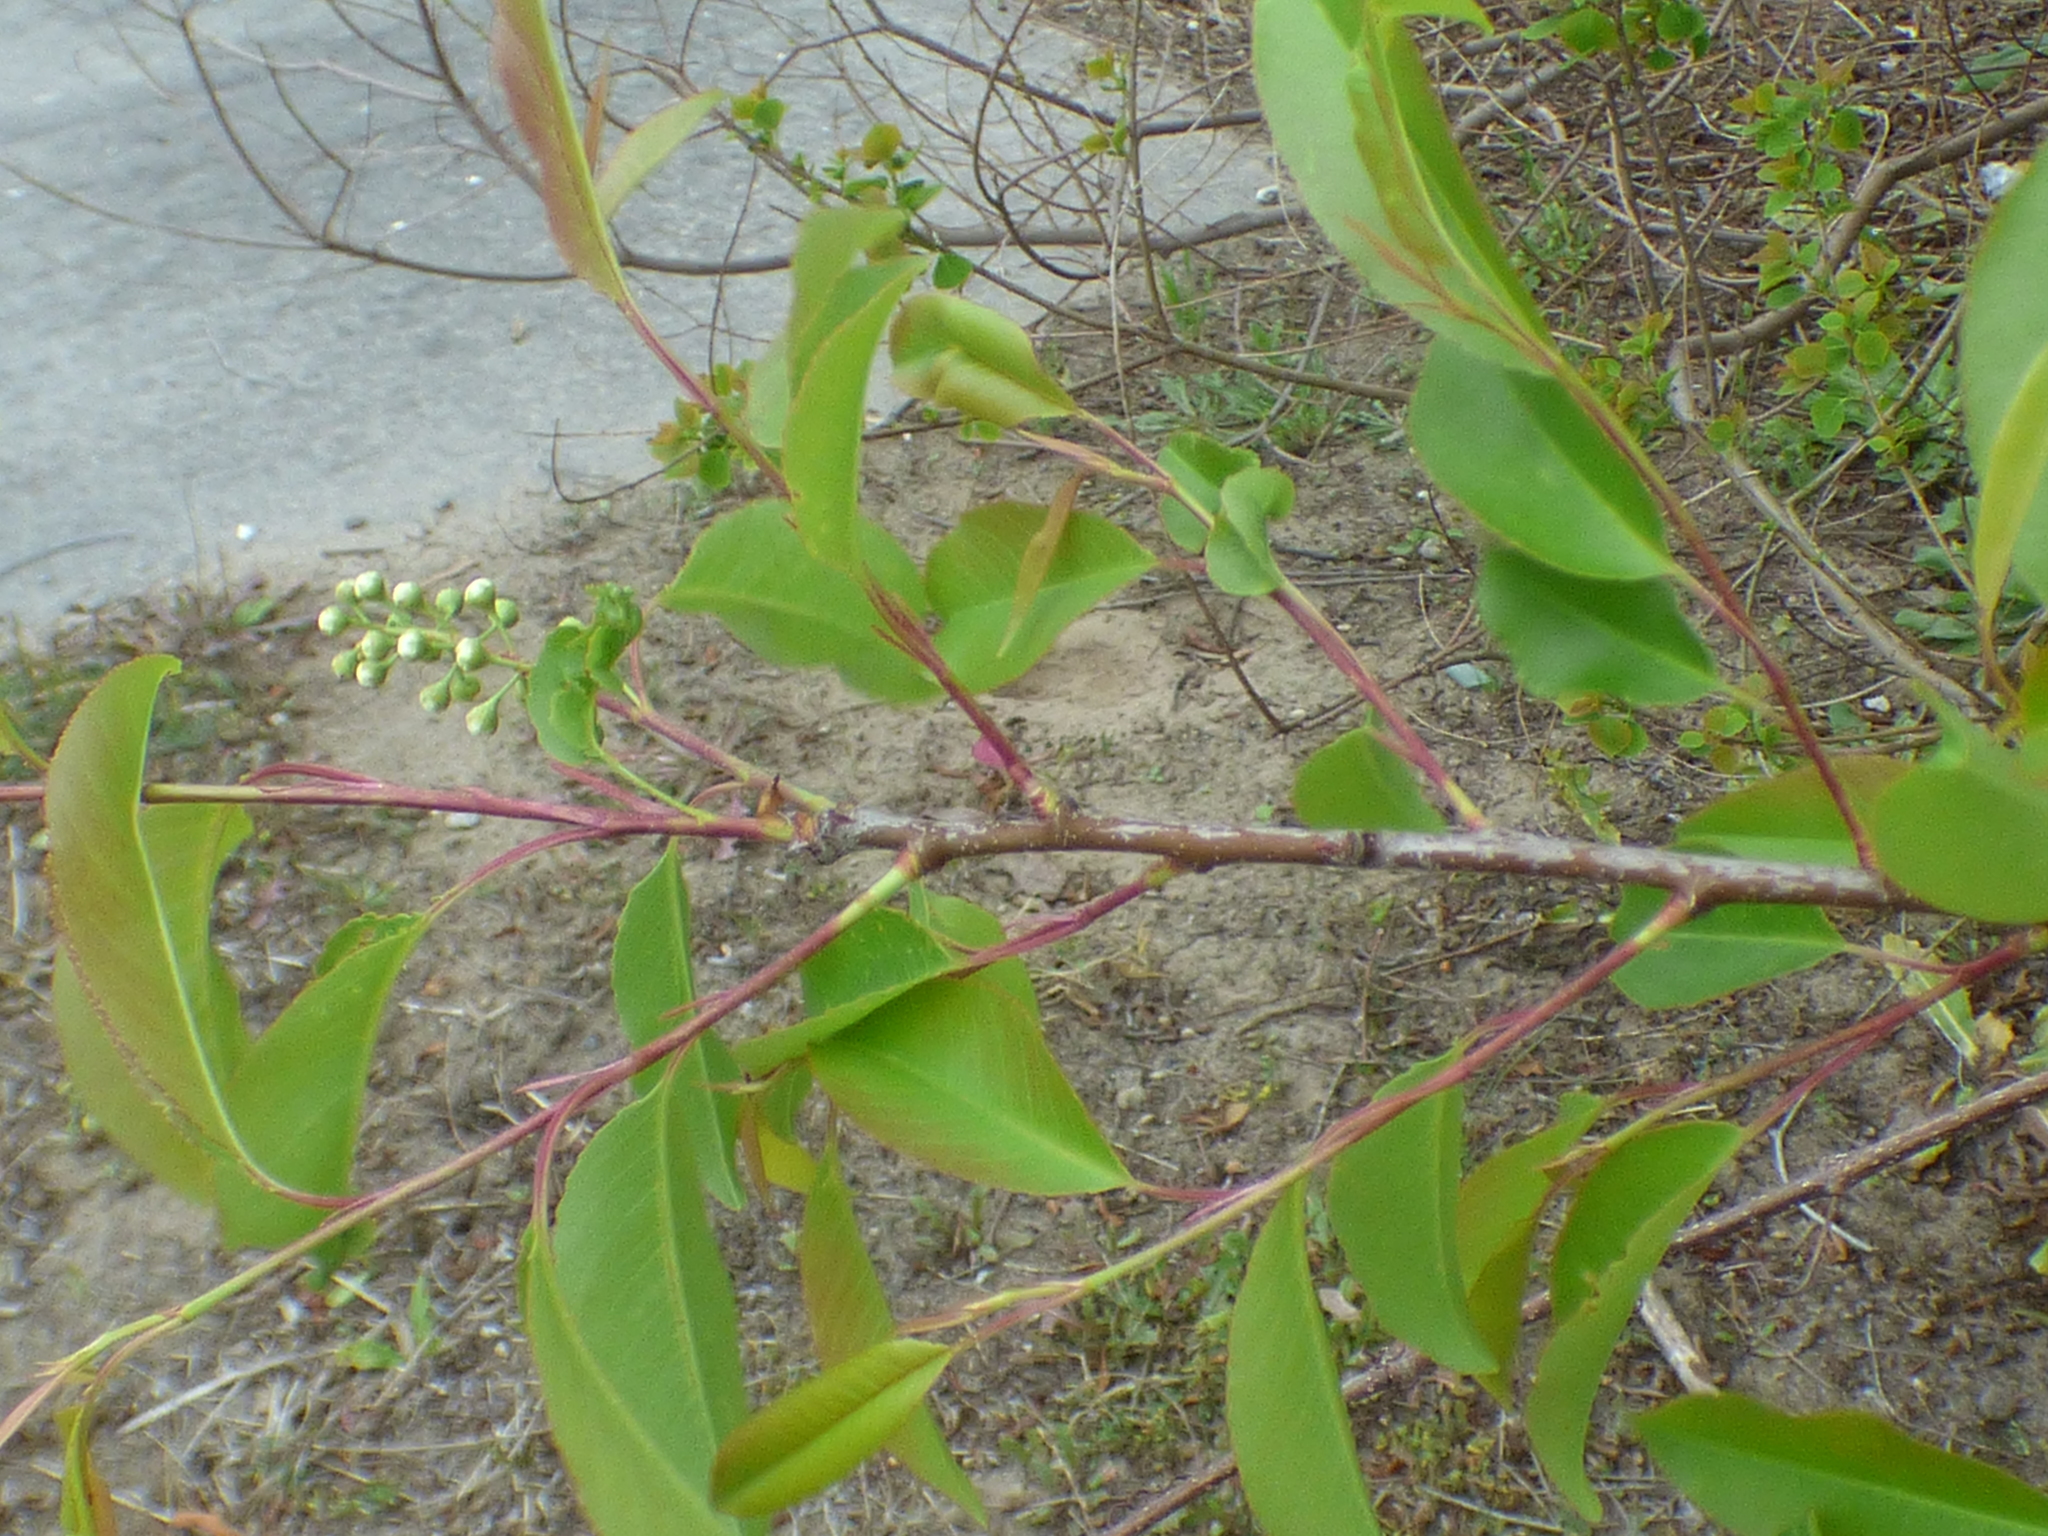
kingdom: Plantae
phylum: Tracheophyta
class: Magnoliopsida
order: Rosales
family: Rosaceae
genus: Prunus
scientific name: Prunus serotina
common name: Black cherry
